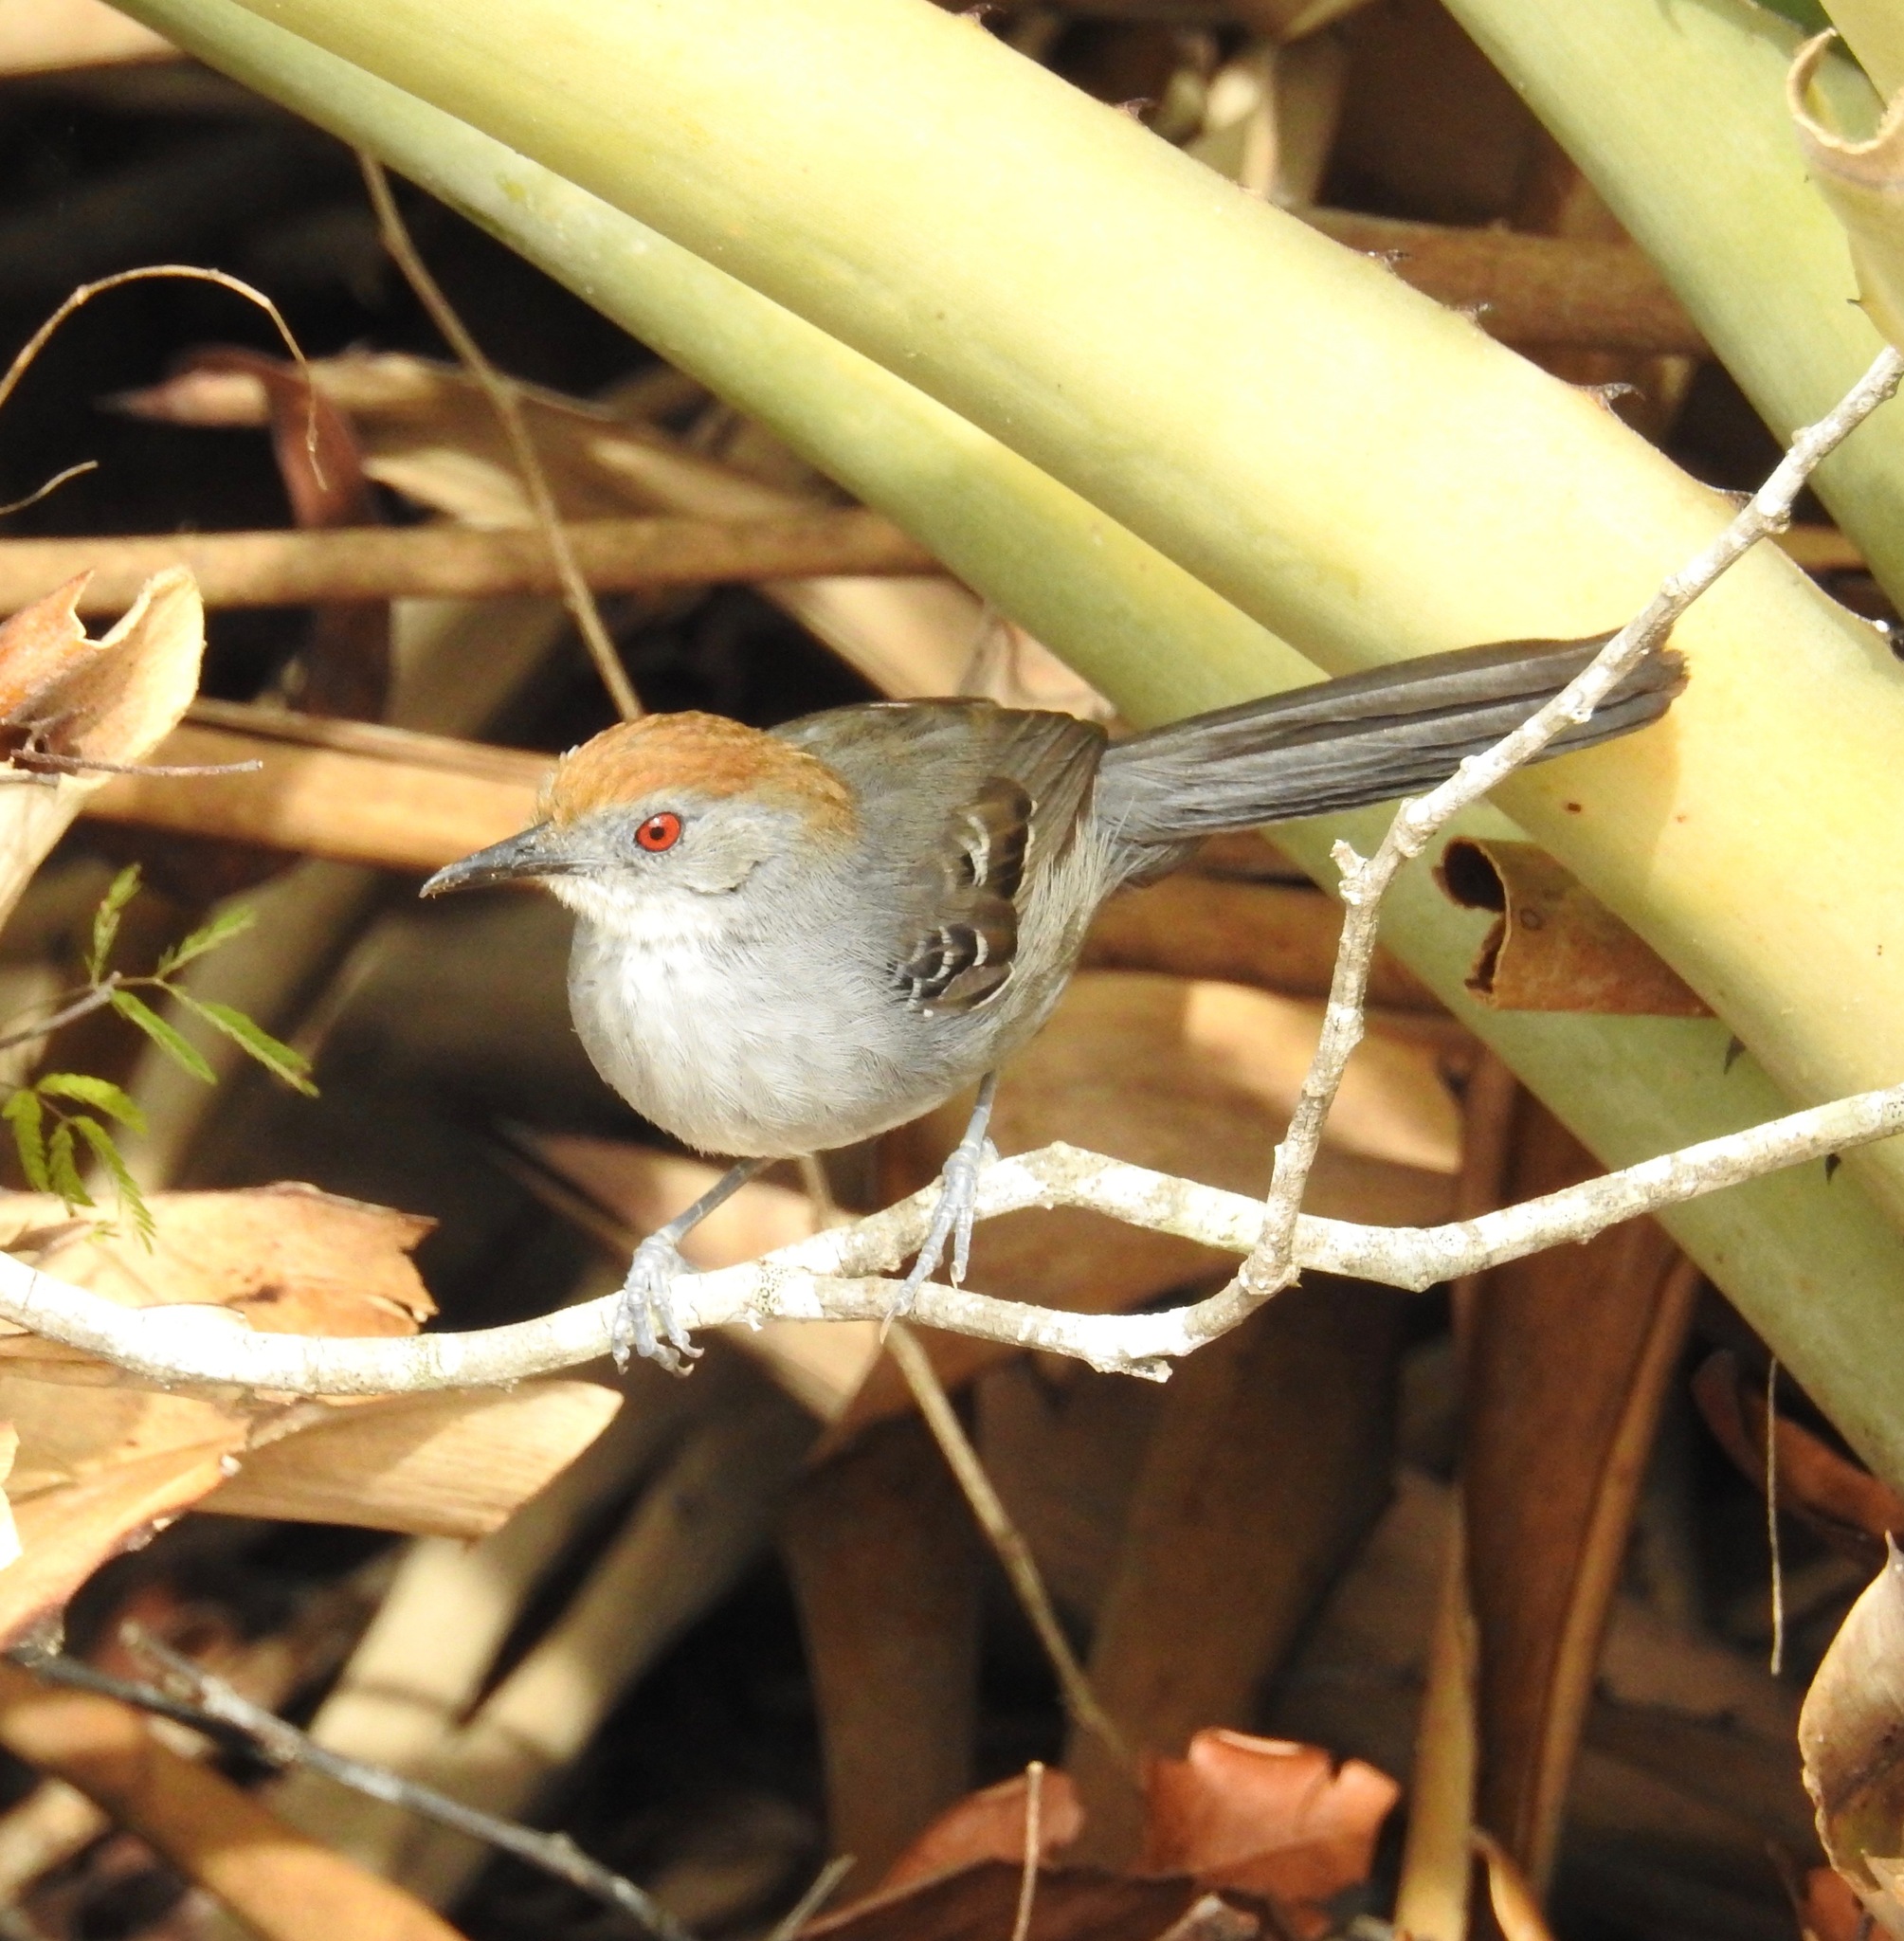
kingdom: Animalia
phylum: Chordata
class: Aves
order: Passeriformes
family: Thamnophilidae
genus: Rhopornis
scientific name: Rhopornis ardesiacus
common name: Slender antbird
